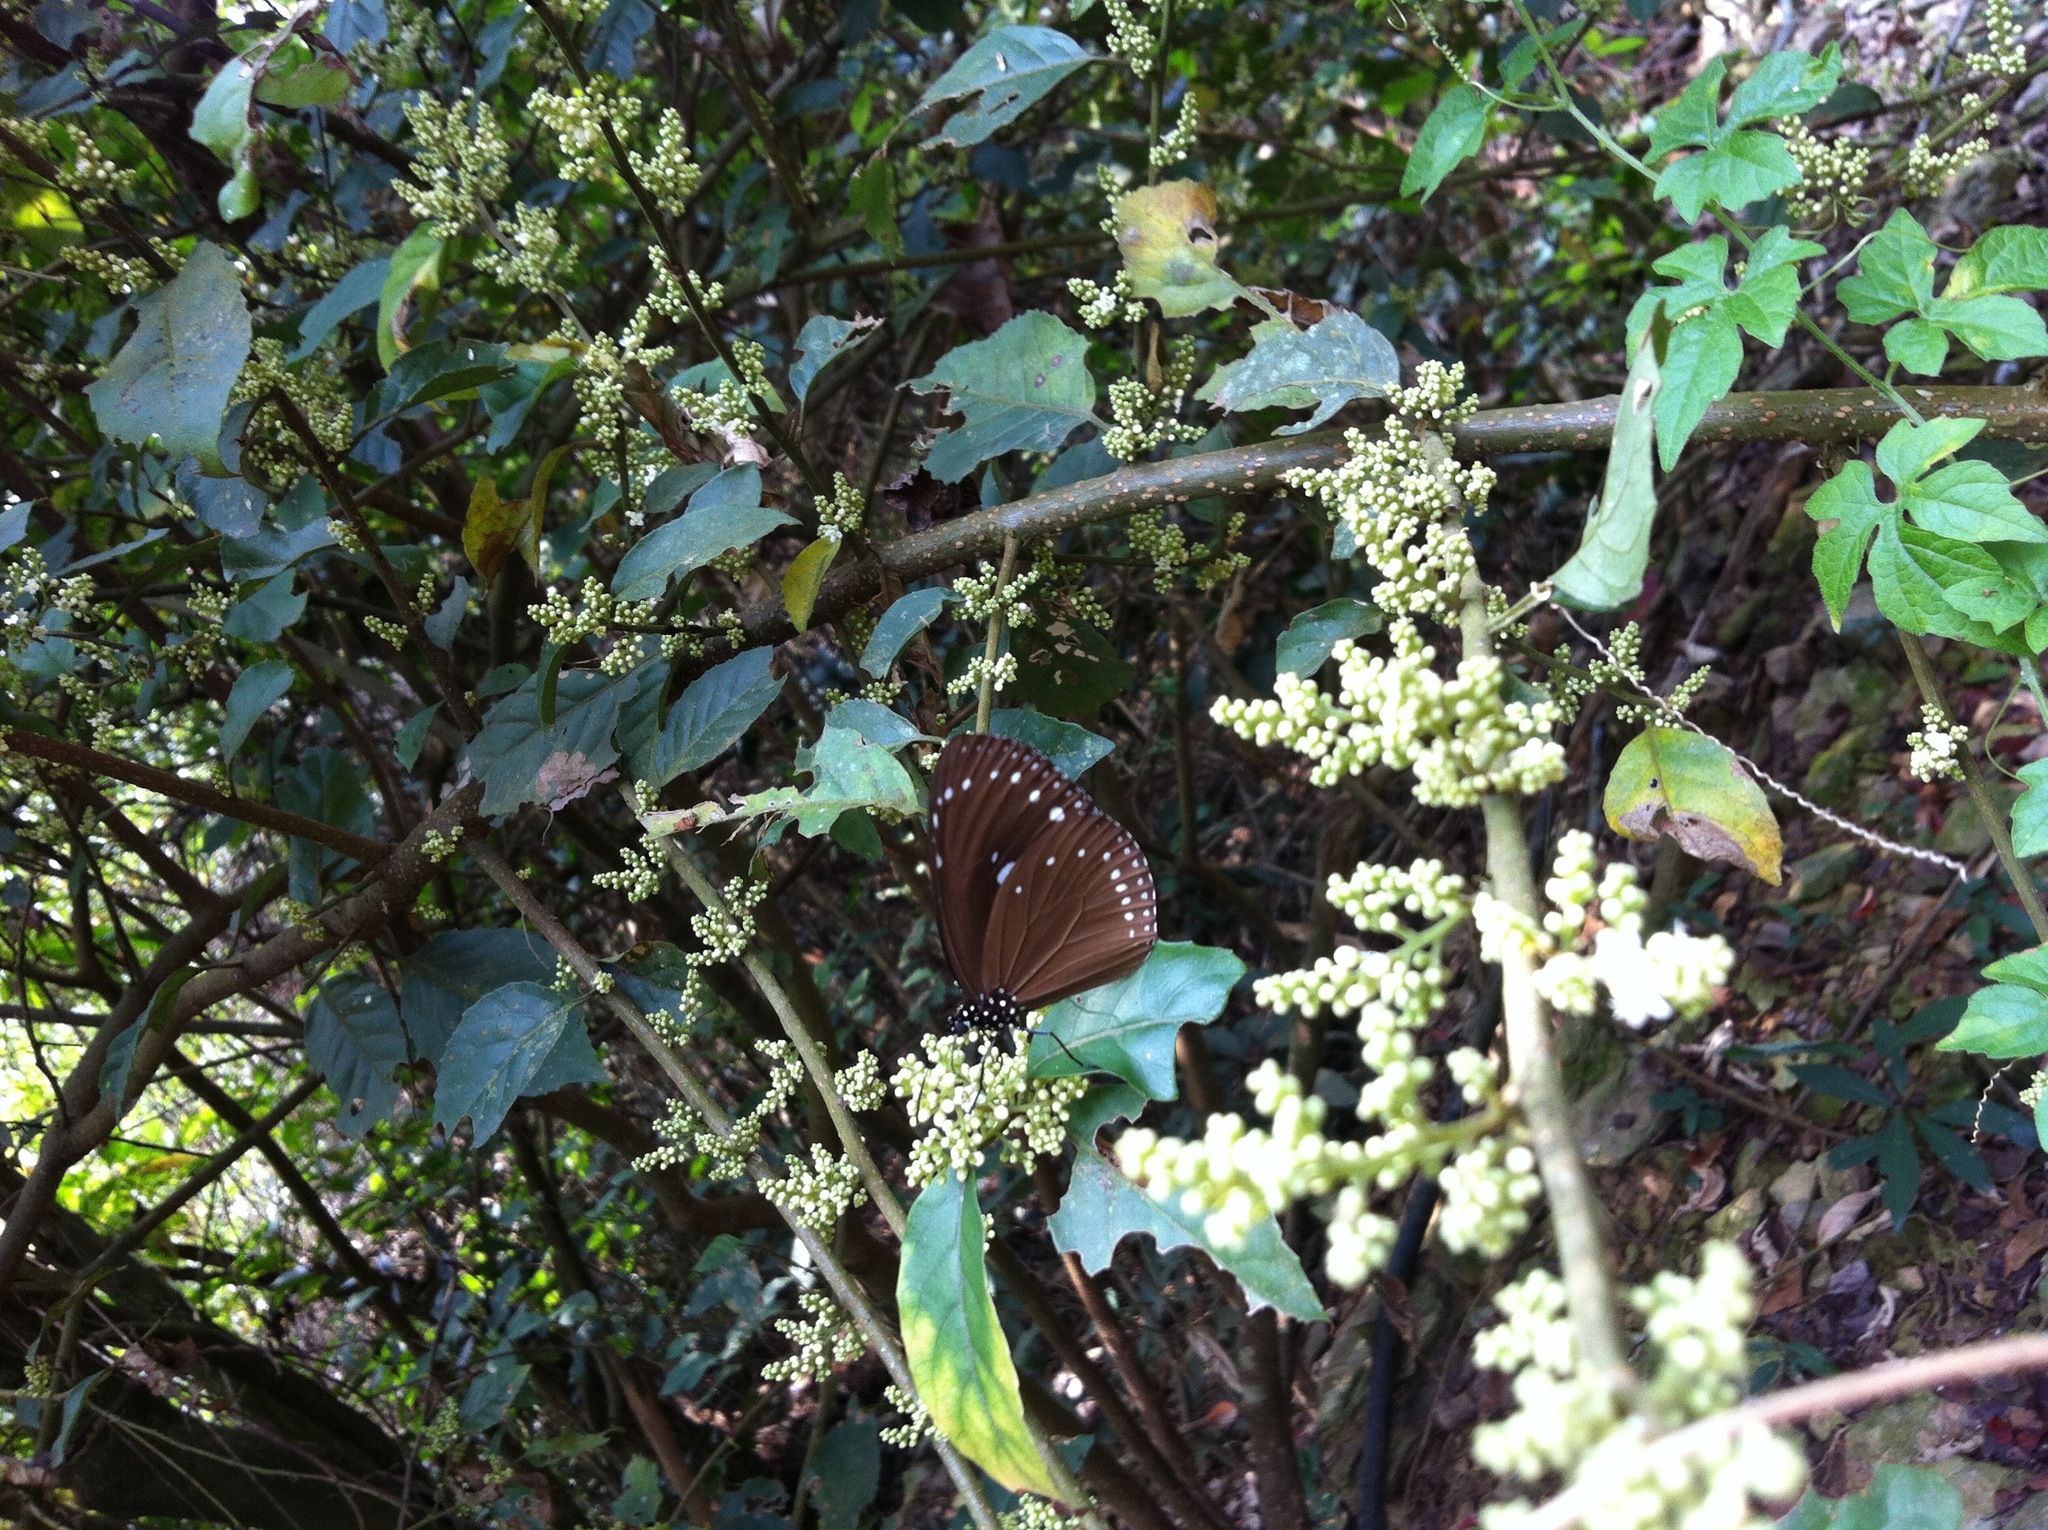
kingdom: Animalia
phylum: Arthropoda
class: Insecta
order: Lepidoptera
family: Nymphalidae
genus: Euploea
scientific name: Euploea tulliolus
